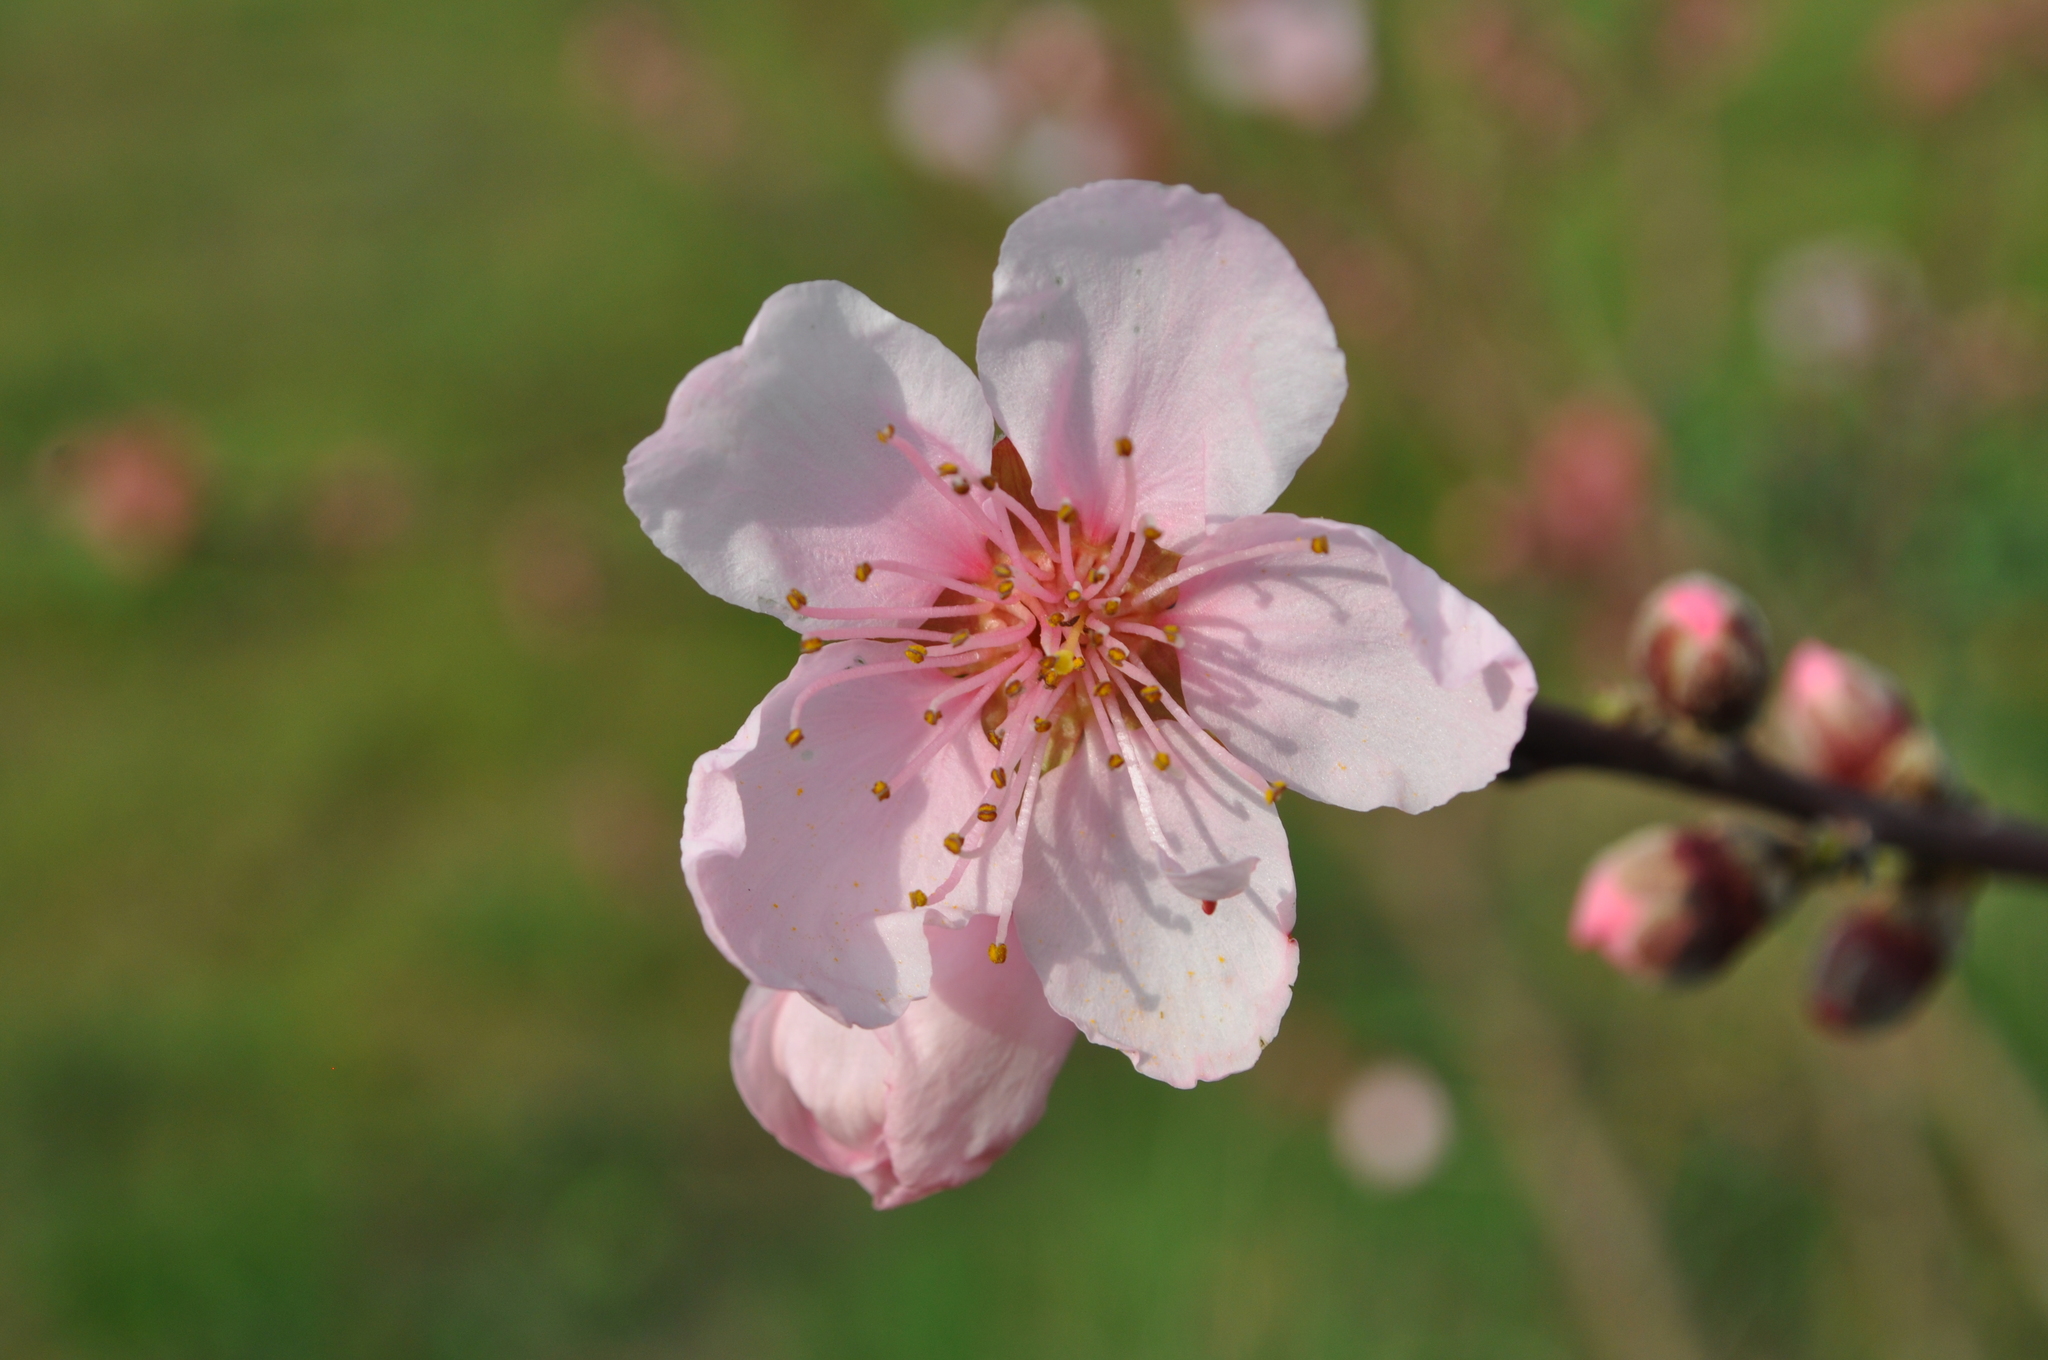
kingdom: Plantae
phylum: Tracheophyta
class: Magnoliopsida
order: Rosales
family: Rosaceae
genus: Prunus
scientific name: Prunus persica
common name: Peach
